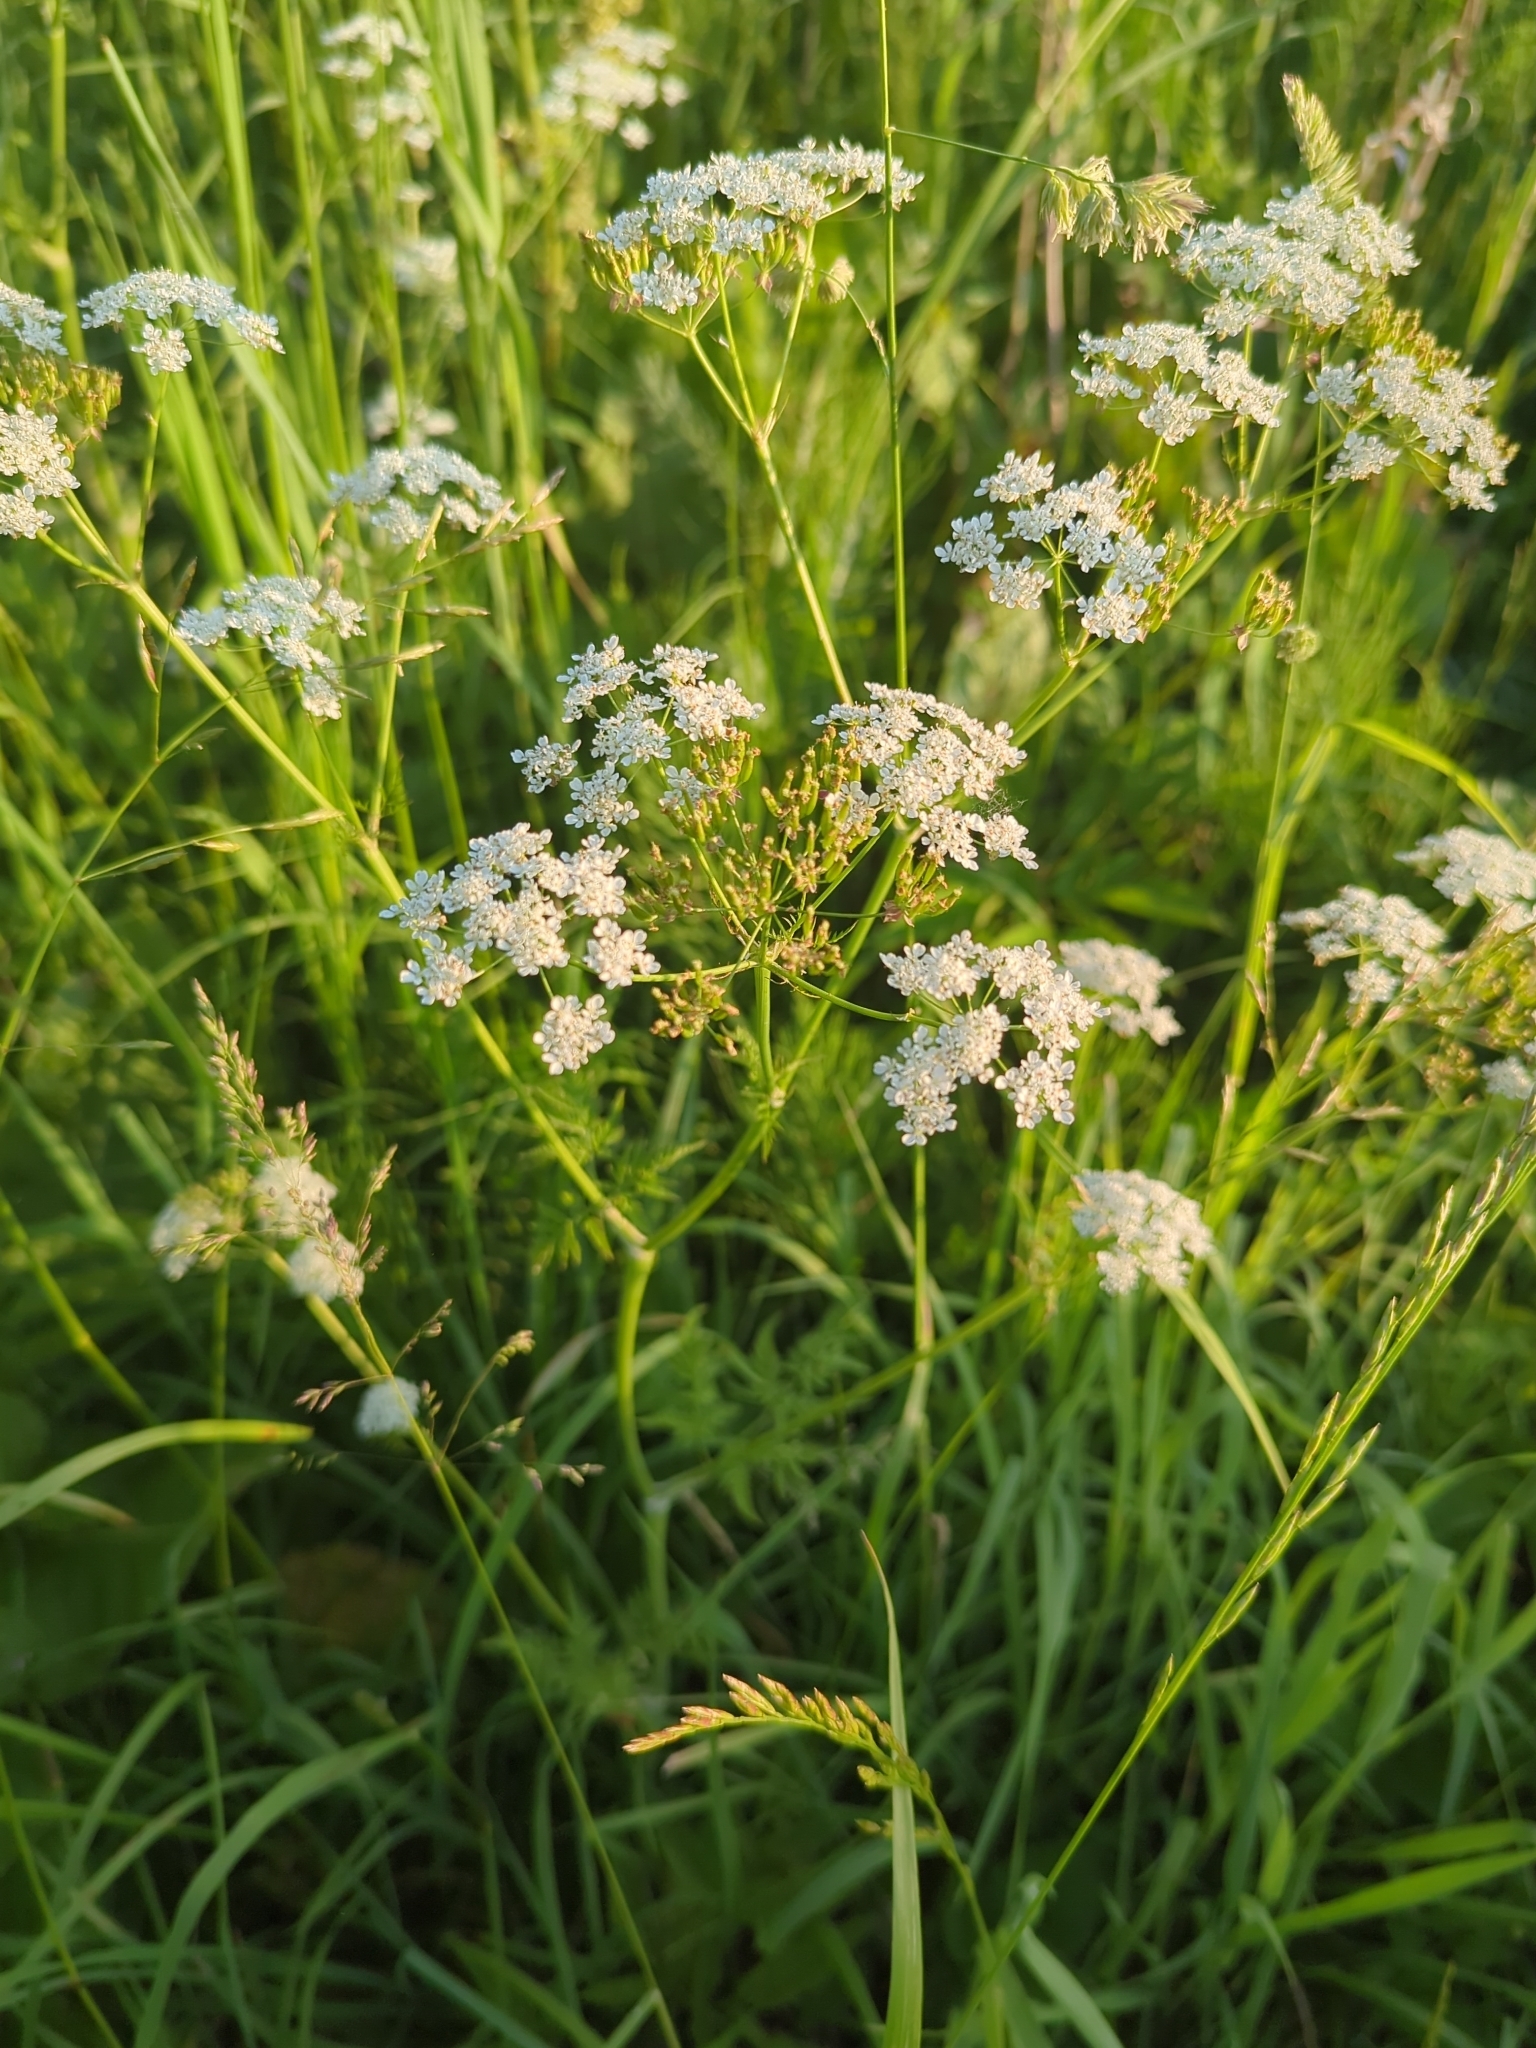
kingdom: Plantae
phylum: Tracheophyta
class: Magnoliopsida
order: Apiales
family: Apiaceae
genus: Anthriscus
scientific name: Anthriscus sylvestris
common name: Cow parsley
